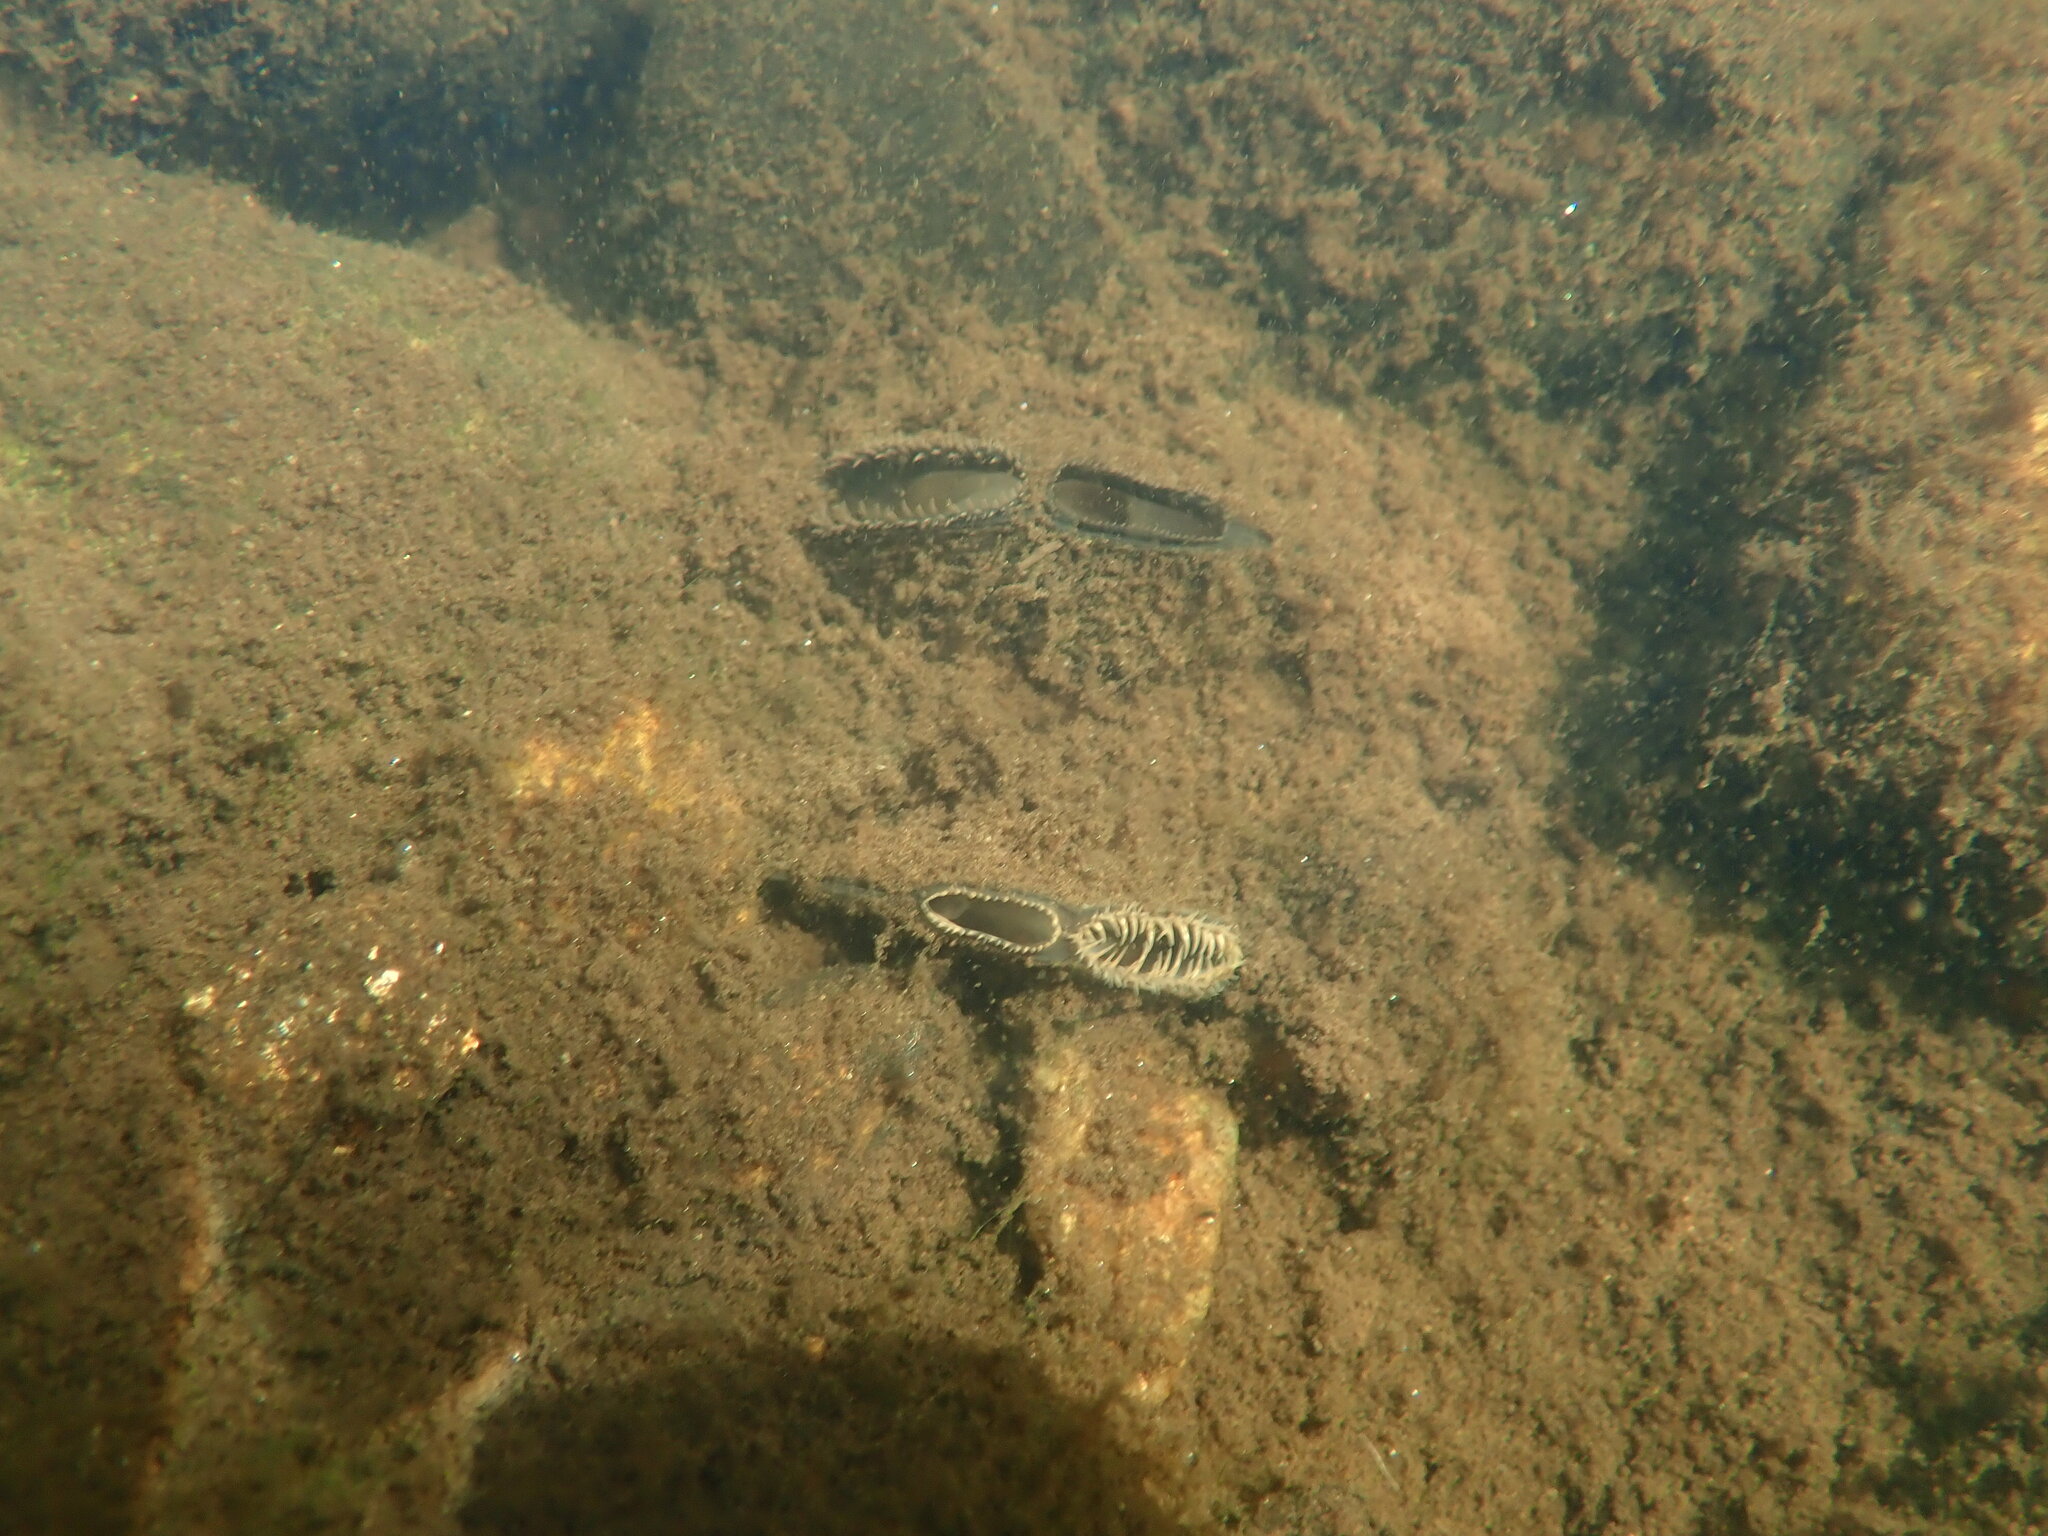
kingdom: Animalia
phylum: Mollusca
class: Bivalvia
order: Unionida
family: Unionidae
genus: Elliptio
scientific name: Elliptio complanata
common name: Eastern elliptio
